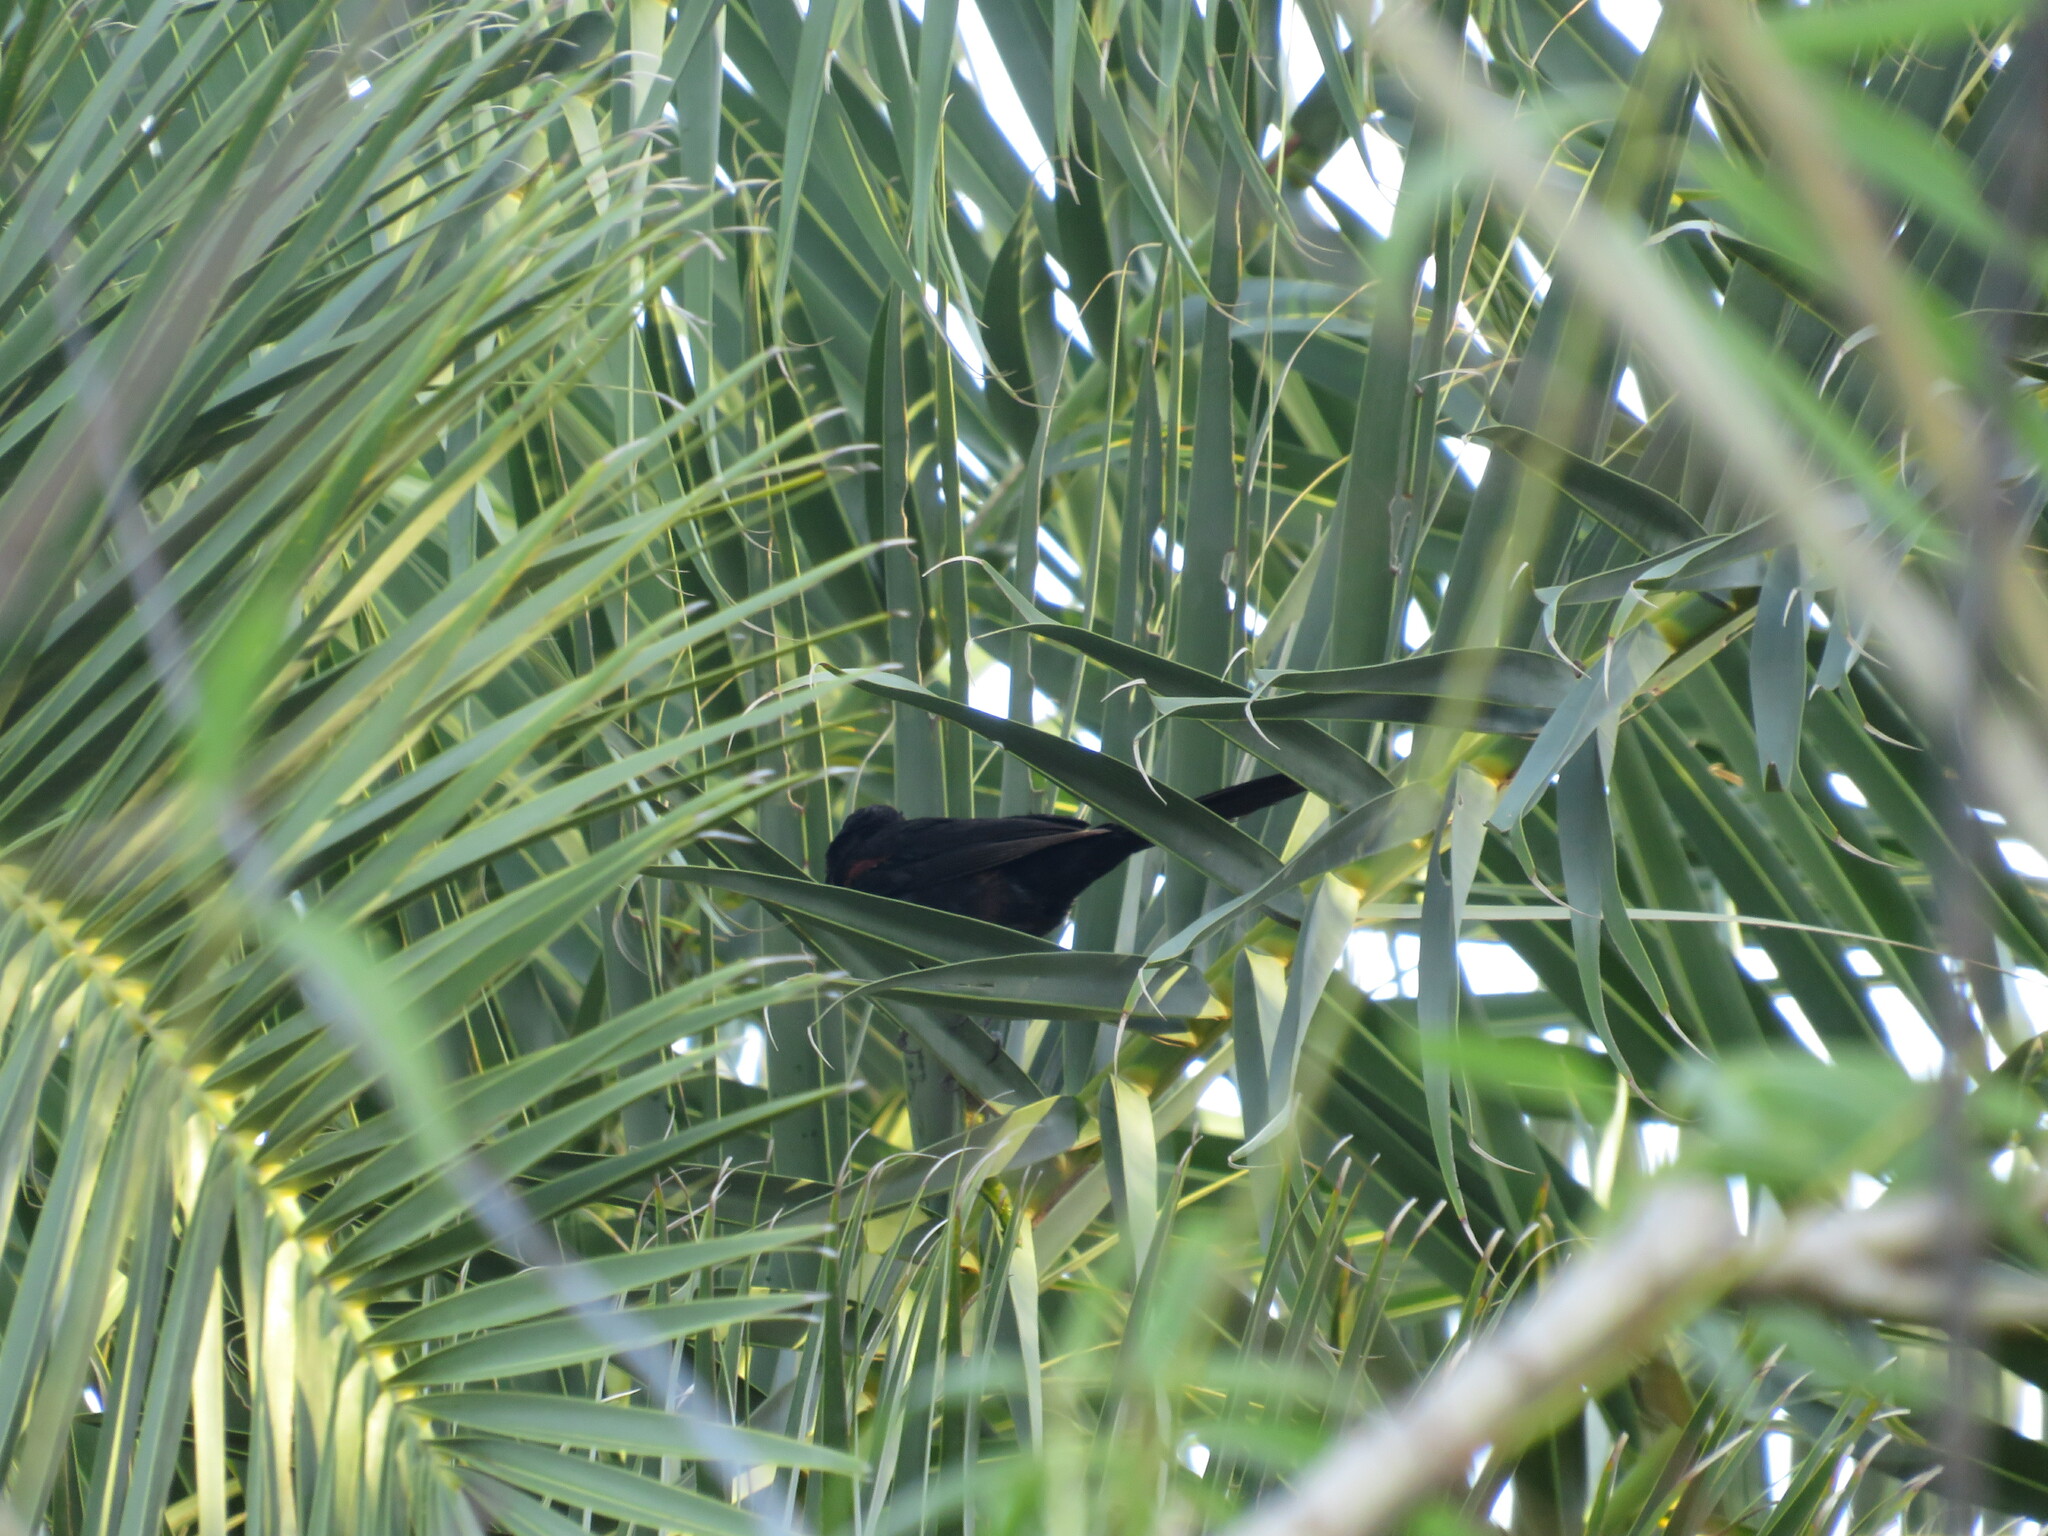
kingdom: Animalia
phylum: Chordata
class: Aves
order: Passeriformes
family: Icteridae
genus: Icterus
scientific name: Icterus cayanensis
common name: Epaulet oriole
